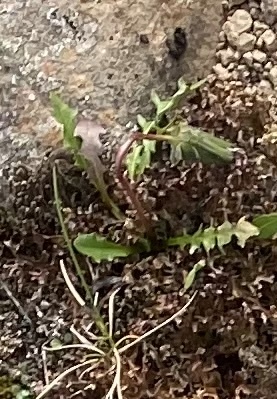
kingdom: Plantae
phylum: Tracheophyta
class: Magnoliopsida
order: Asterales
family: Asteraceae
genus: Taraxacum
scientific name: Taraxacum glabrum
